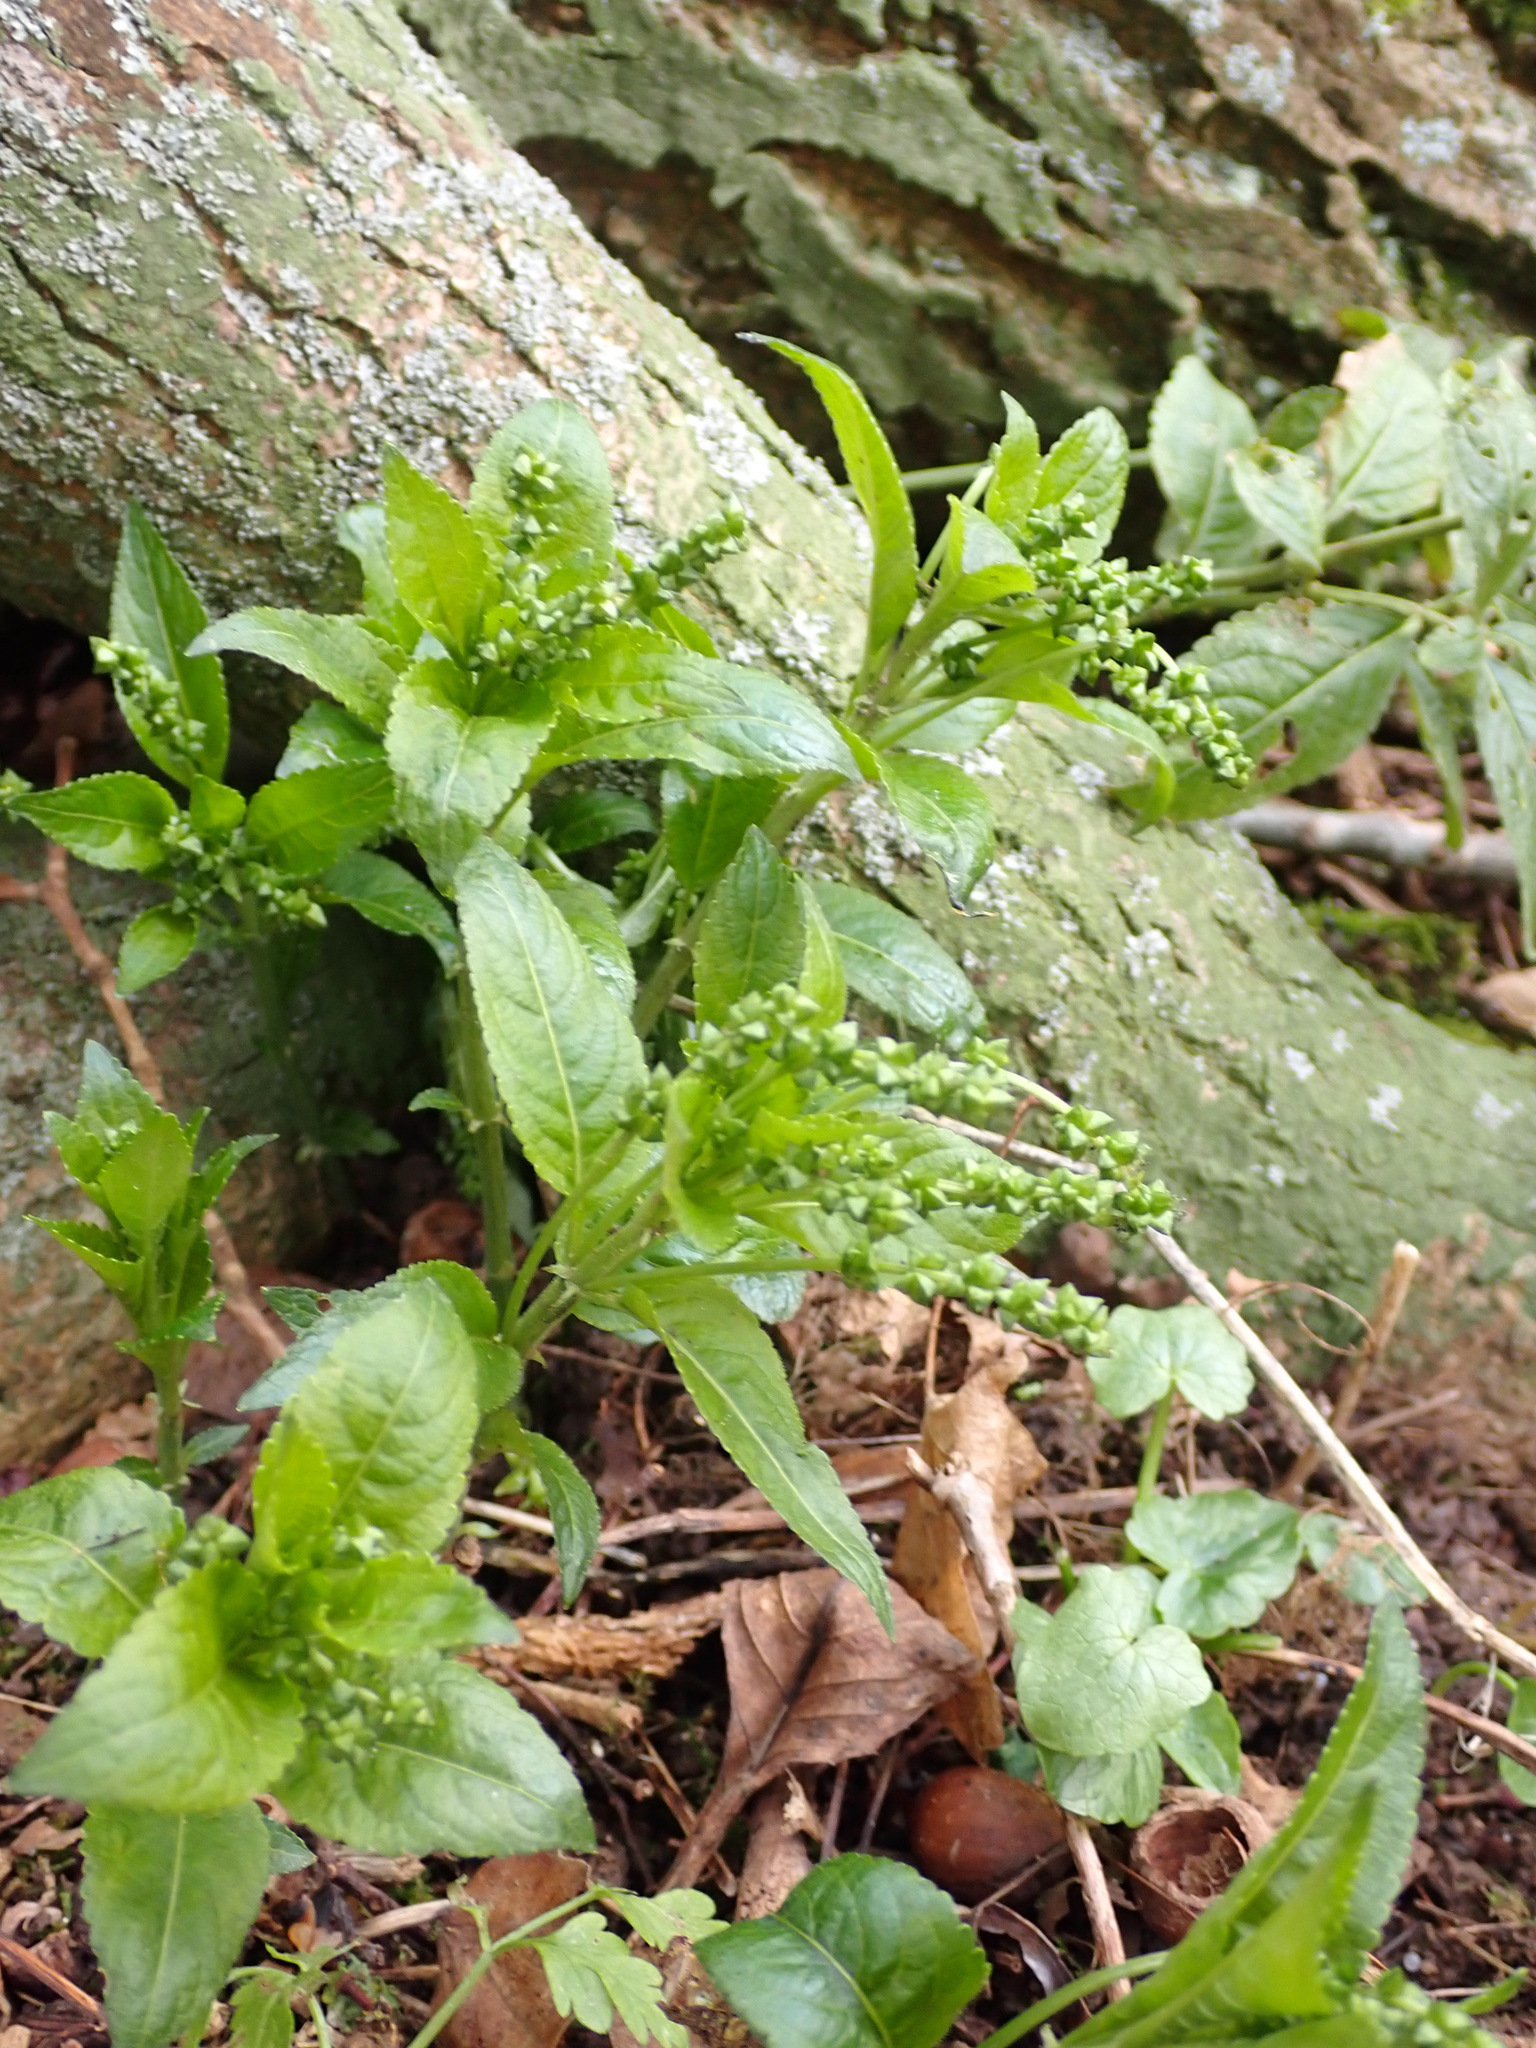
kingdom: Plantae
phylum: Tracheophyta
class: Magnoliopsida
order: Malpighiales
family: Euphorbiaceae
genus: Mercurialis
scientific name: Mercurialis perennis
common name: Dog mercury
